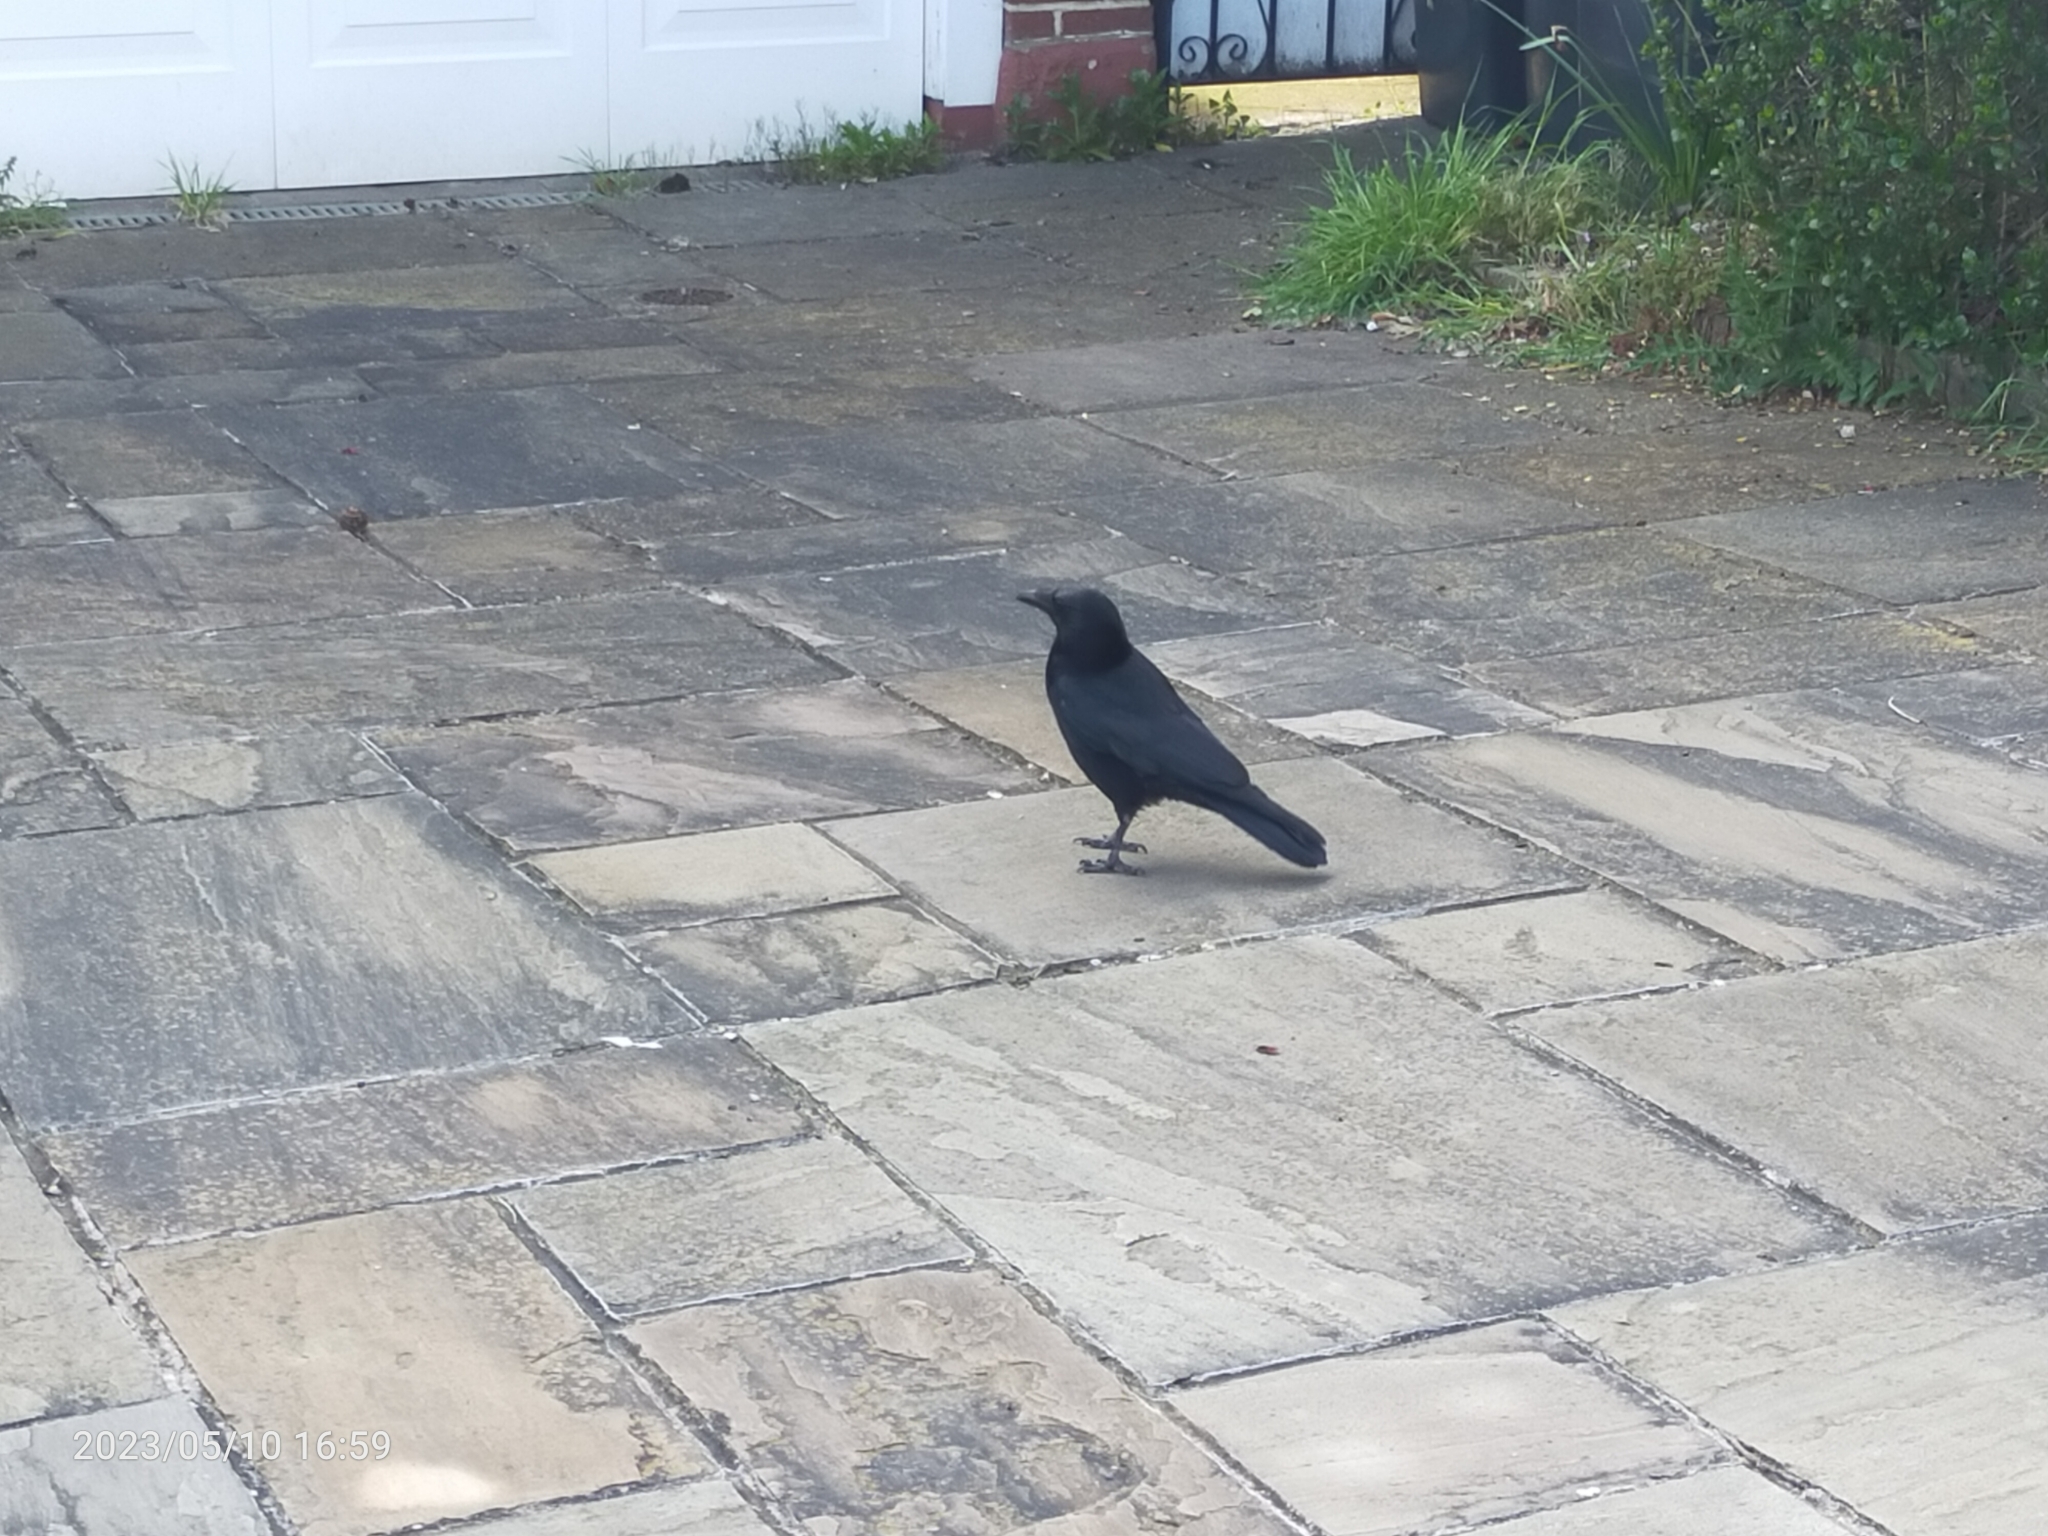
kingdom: Animalia
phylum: Chordata
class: Aves
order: Passeriformes
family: Corvidae
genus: Corvus
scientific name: Corvus corone
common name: Carrion crow
